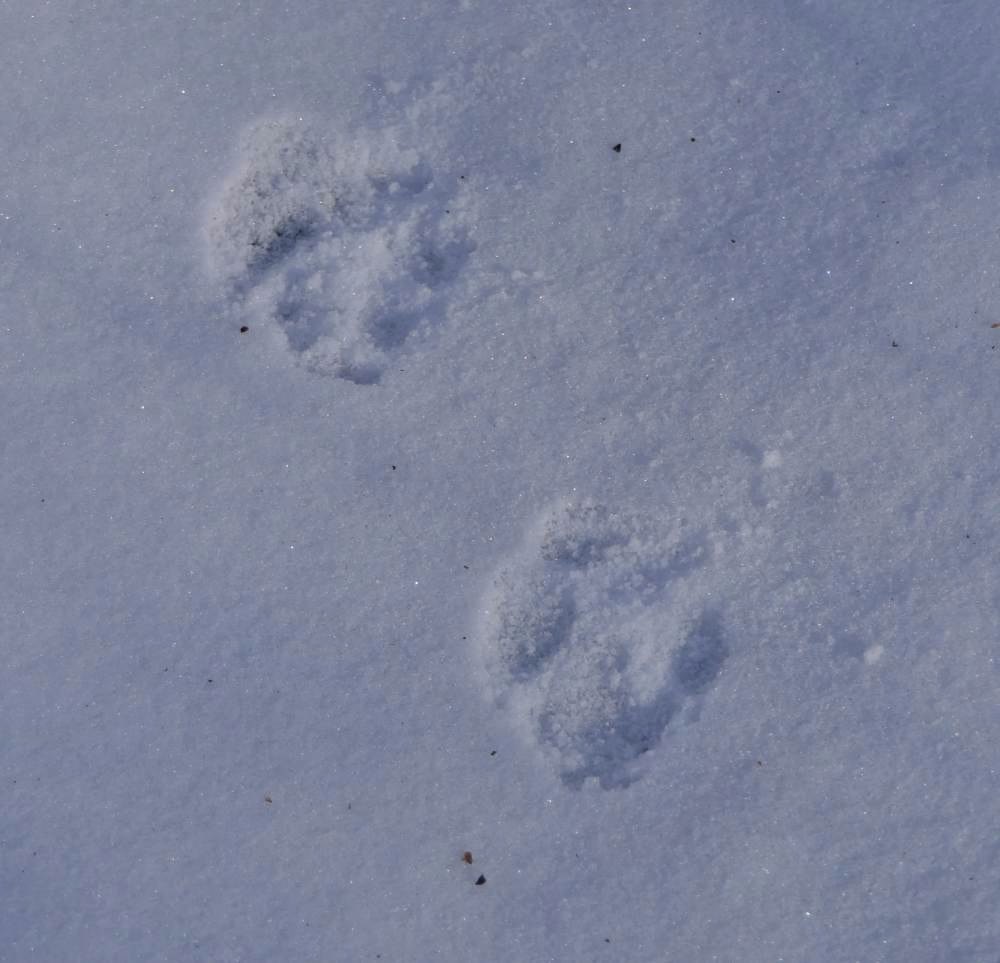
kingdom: Animalia
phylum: Chordata
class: Mammalia
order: Carnivora
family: Canidae
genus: Canis
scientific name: Canis latrans
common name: Coyote
